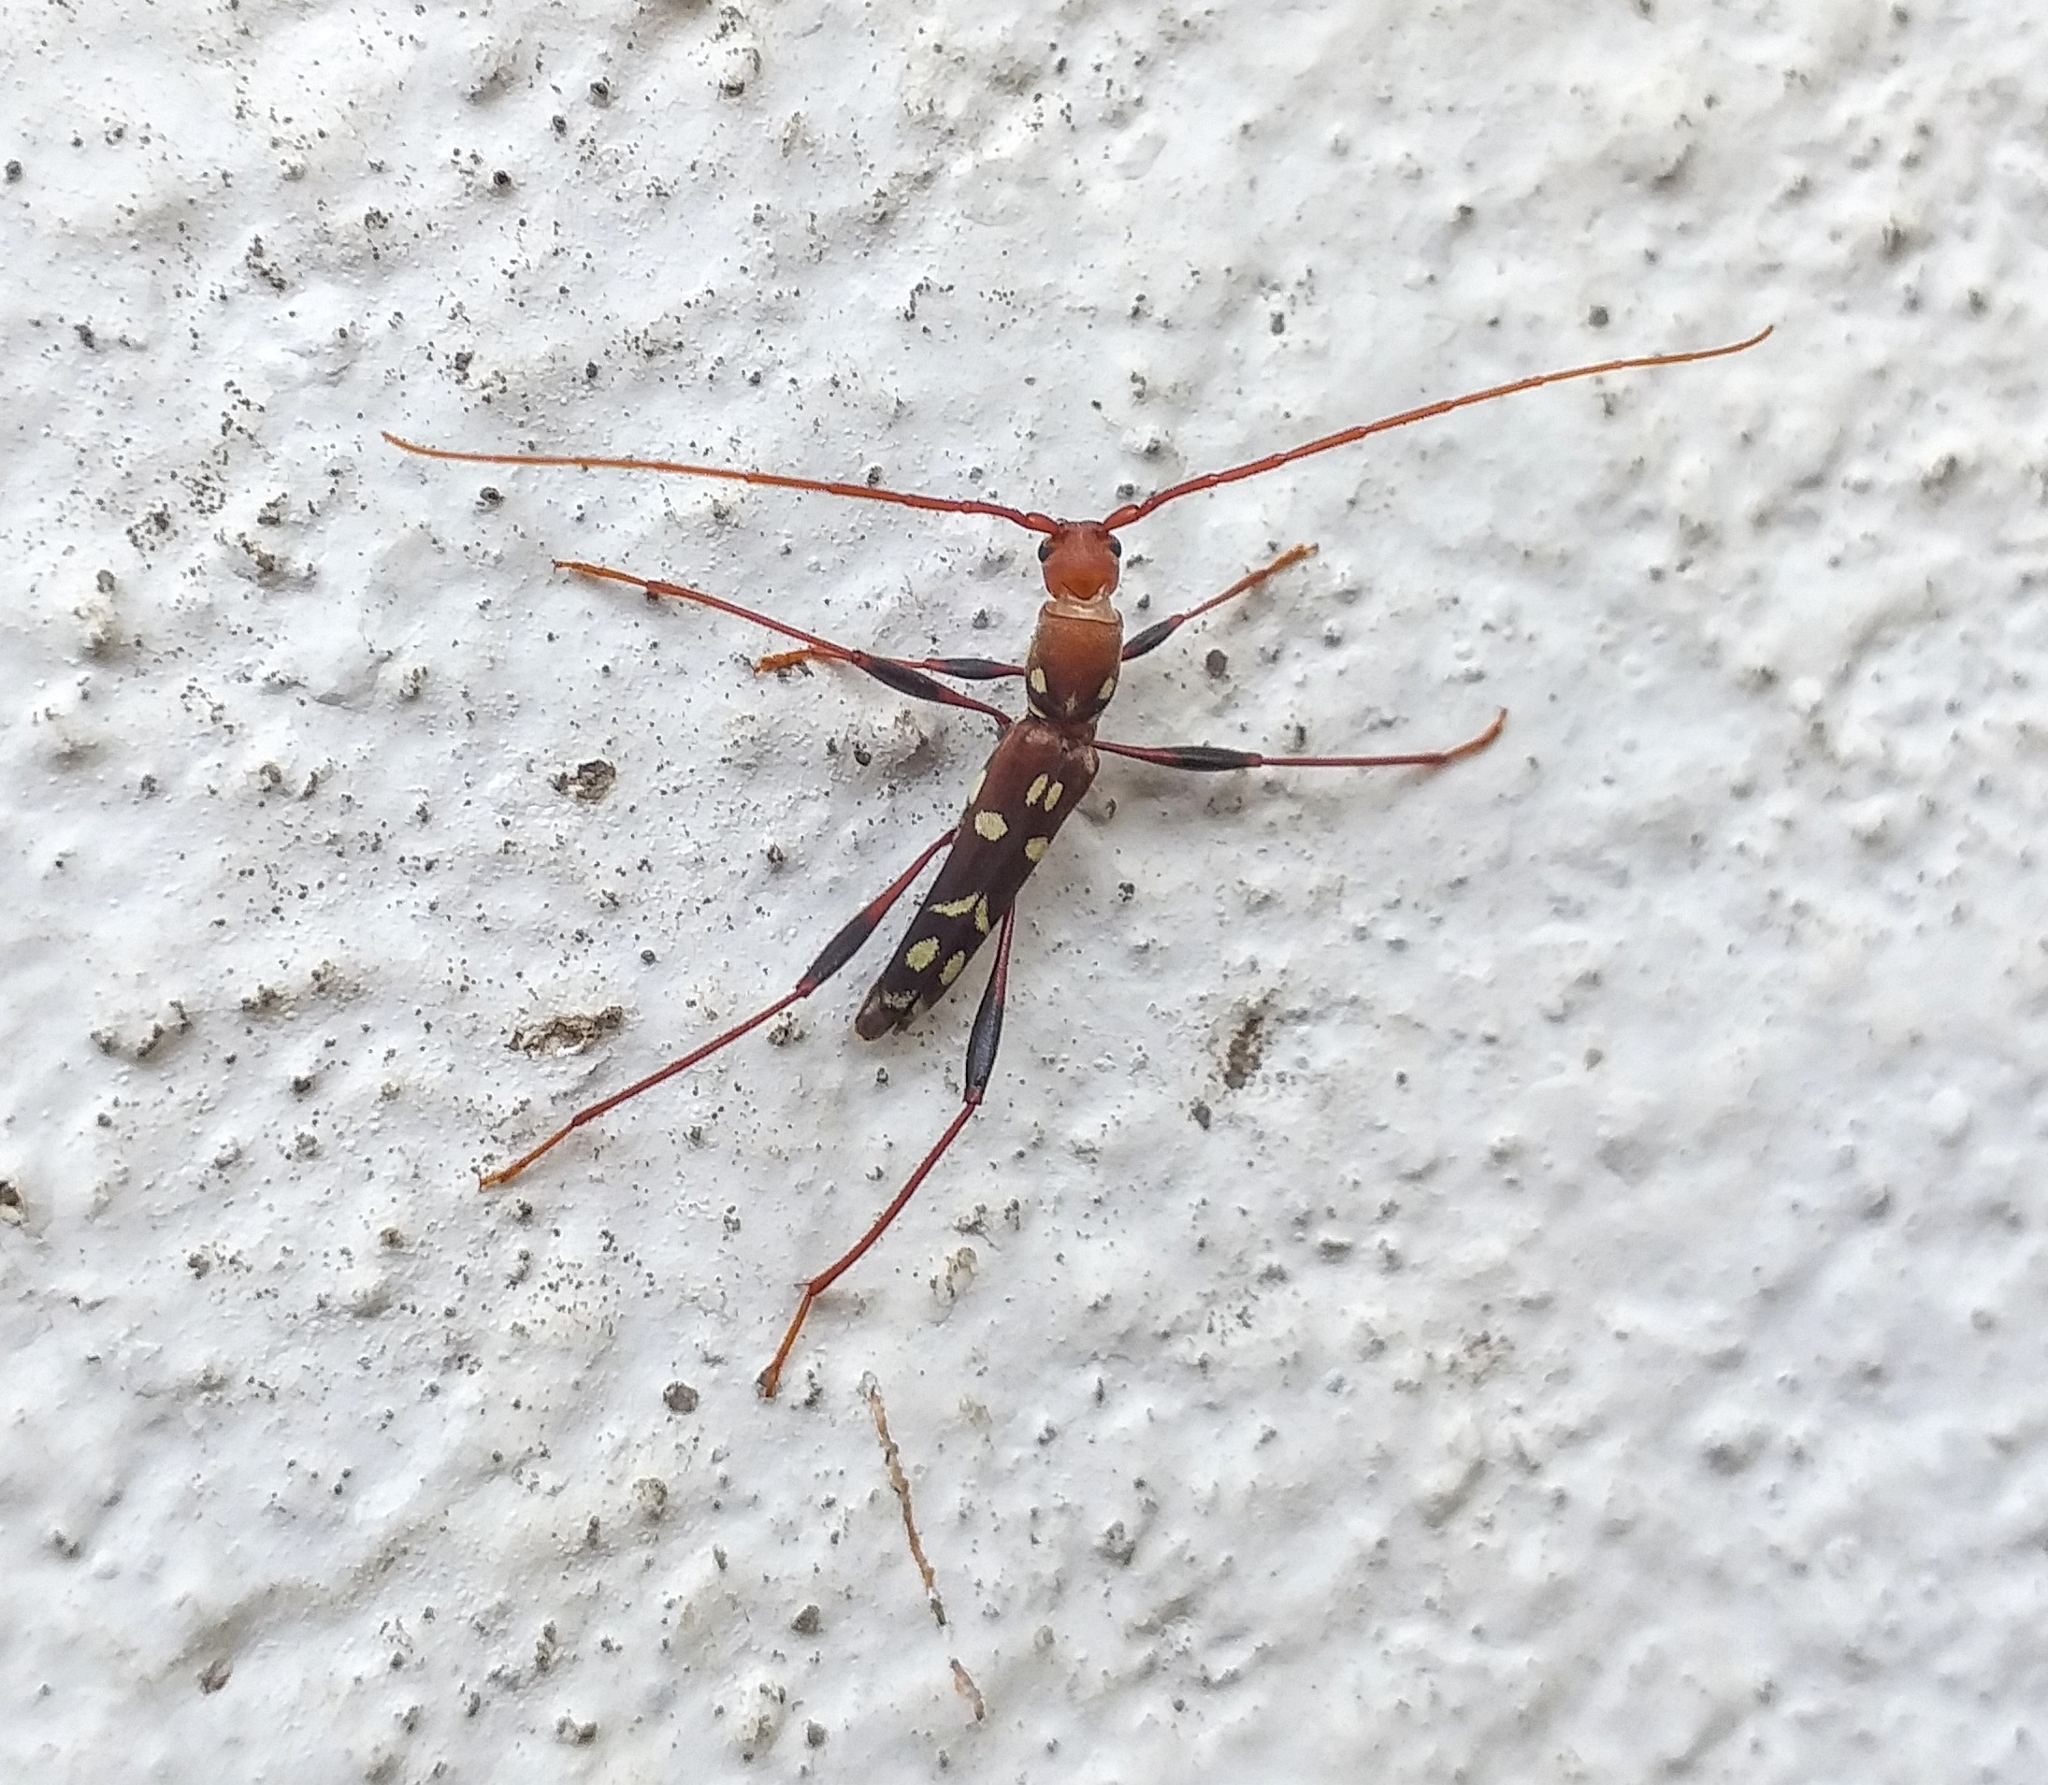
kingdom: Animalia
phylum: Arthropoda
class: Insecta
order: Coleoptera
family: Cerambycidae
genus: Clytocera
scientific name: Clytocera chionospila
